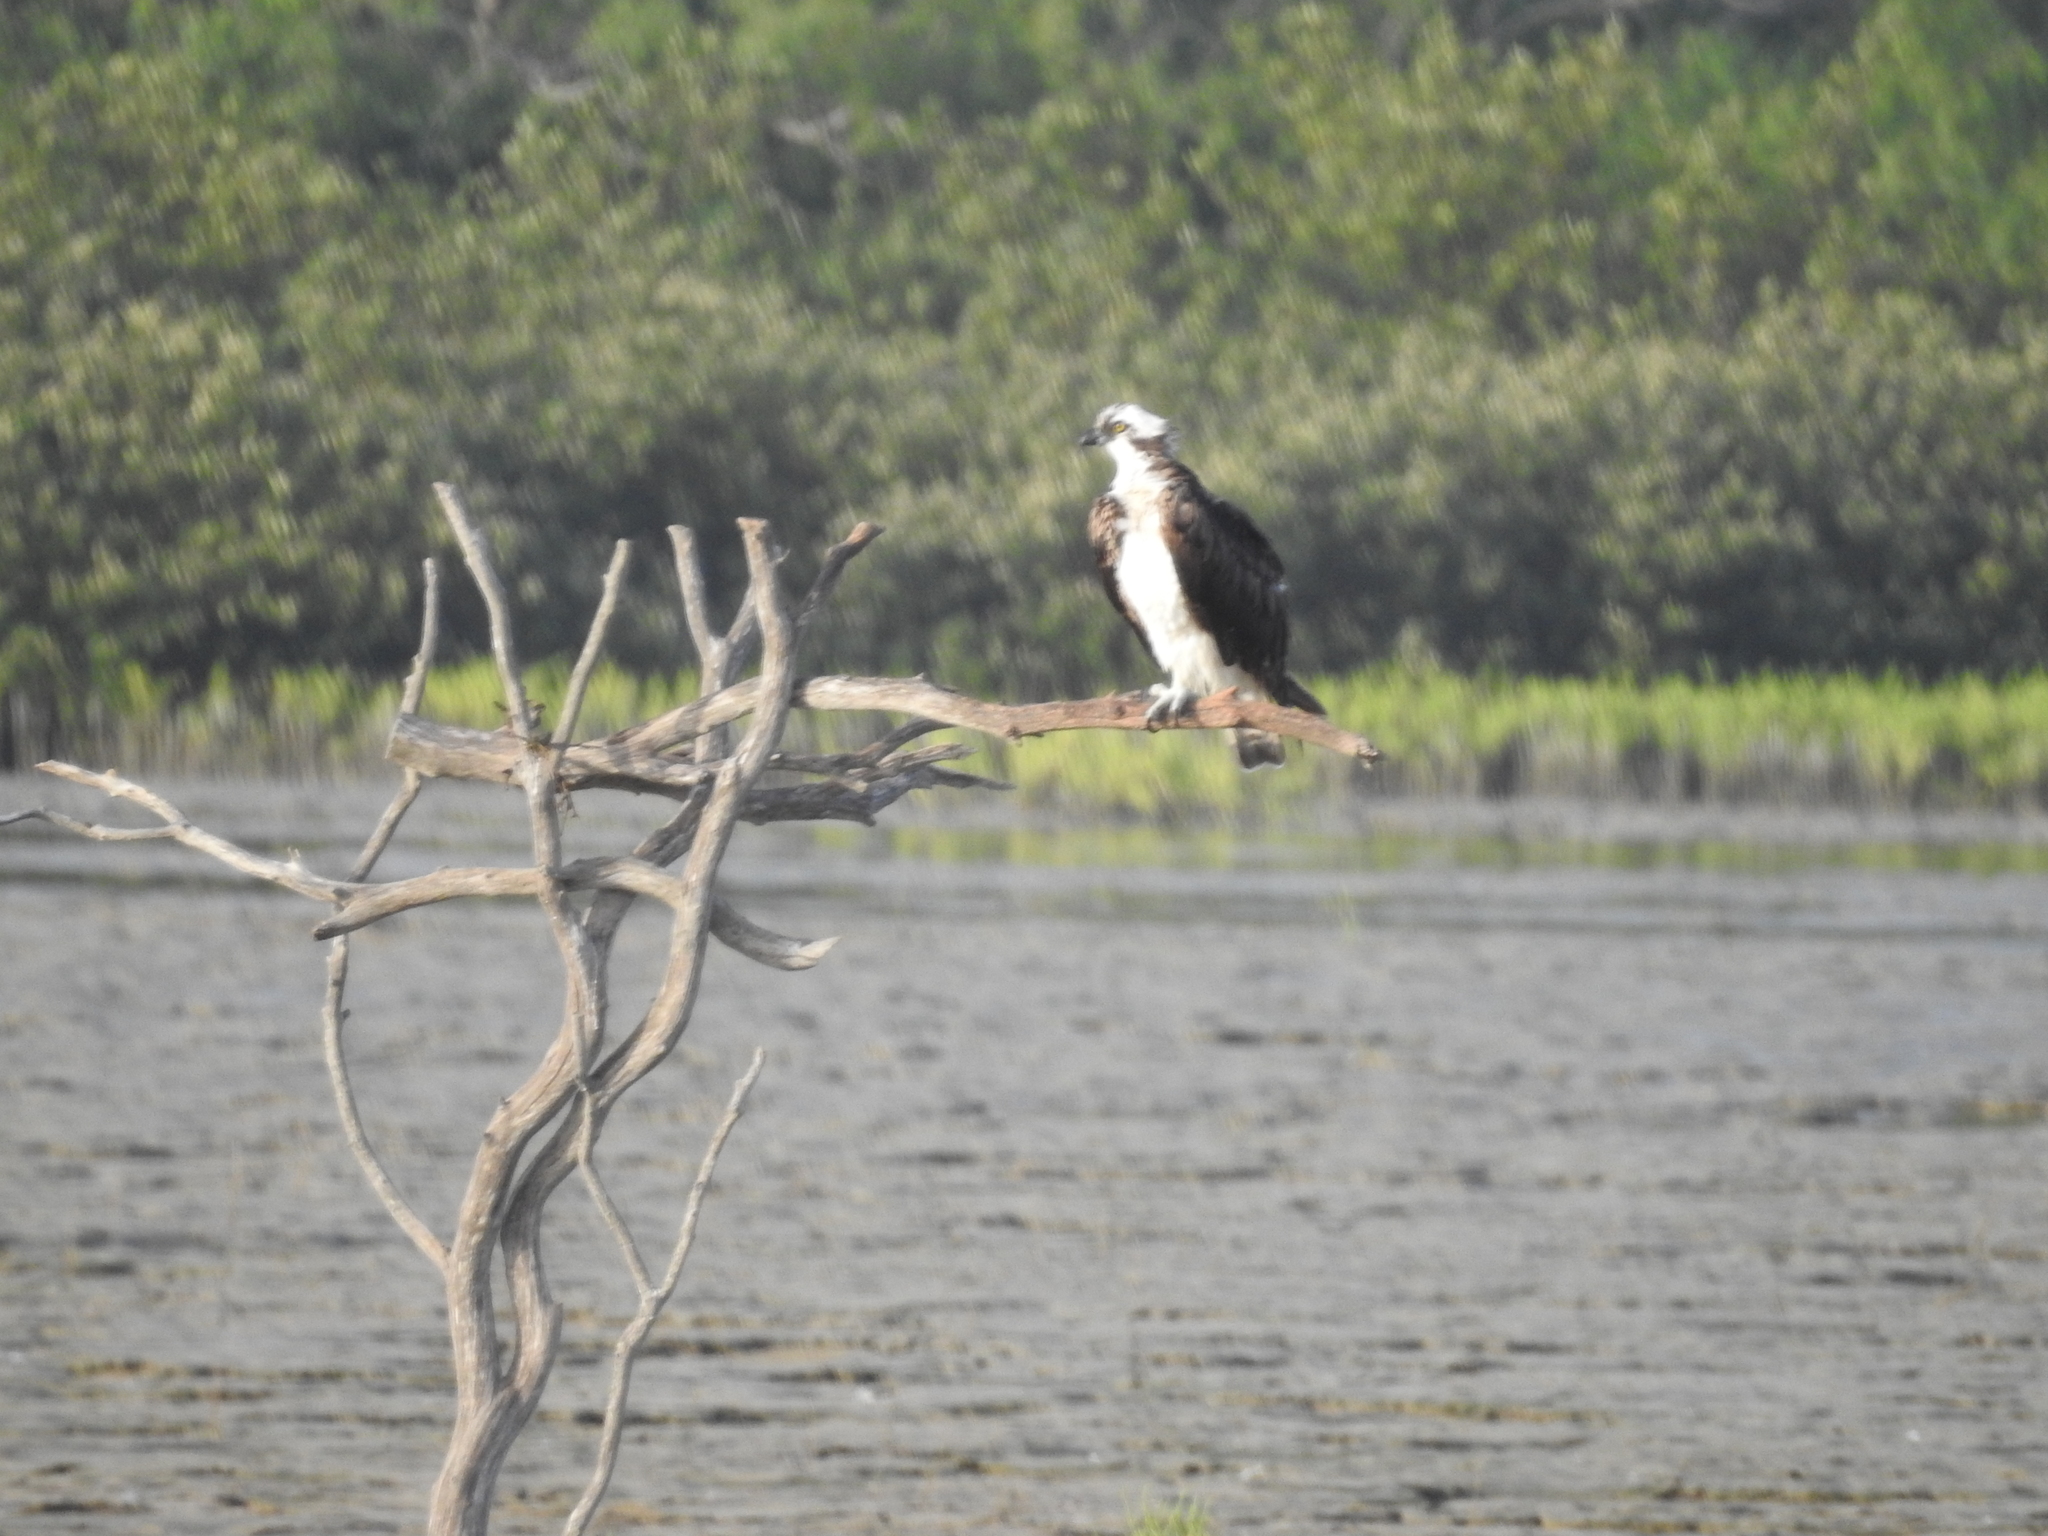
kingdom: Animalia
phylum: Chordata
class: Aves
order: Accipitriformes
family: Pandionidae
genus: Pandion
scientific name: Pandion haliaetus
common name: Osprey
